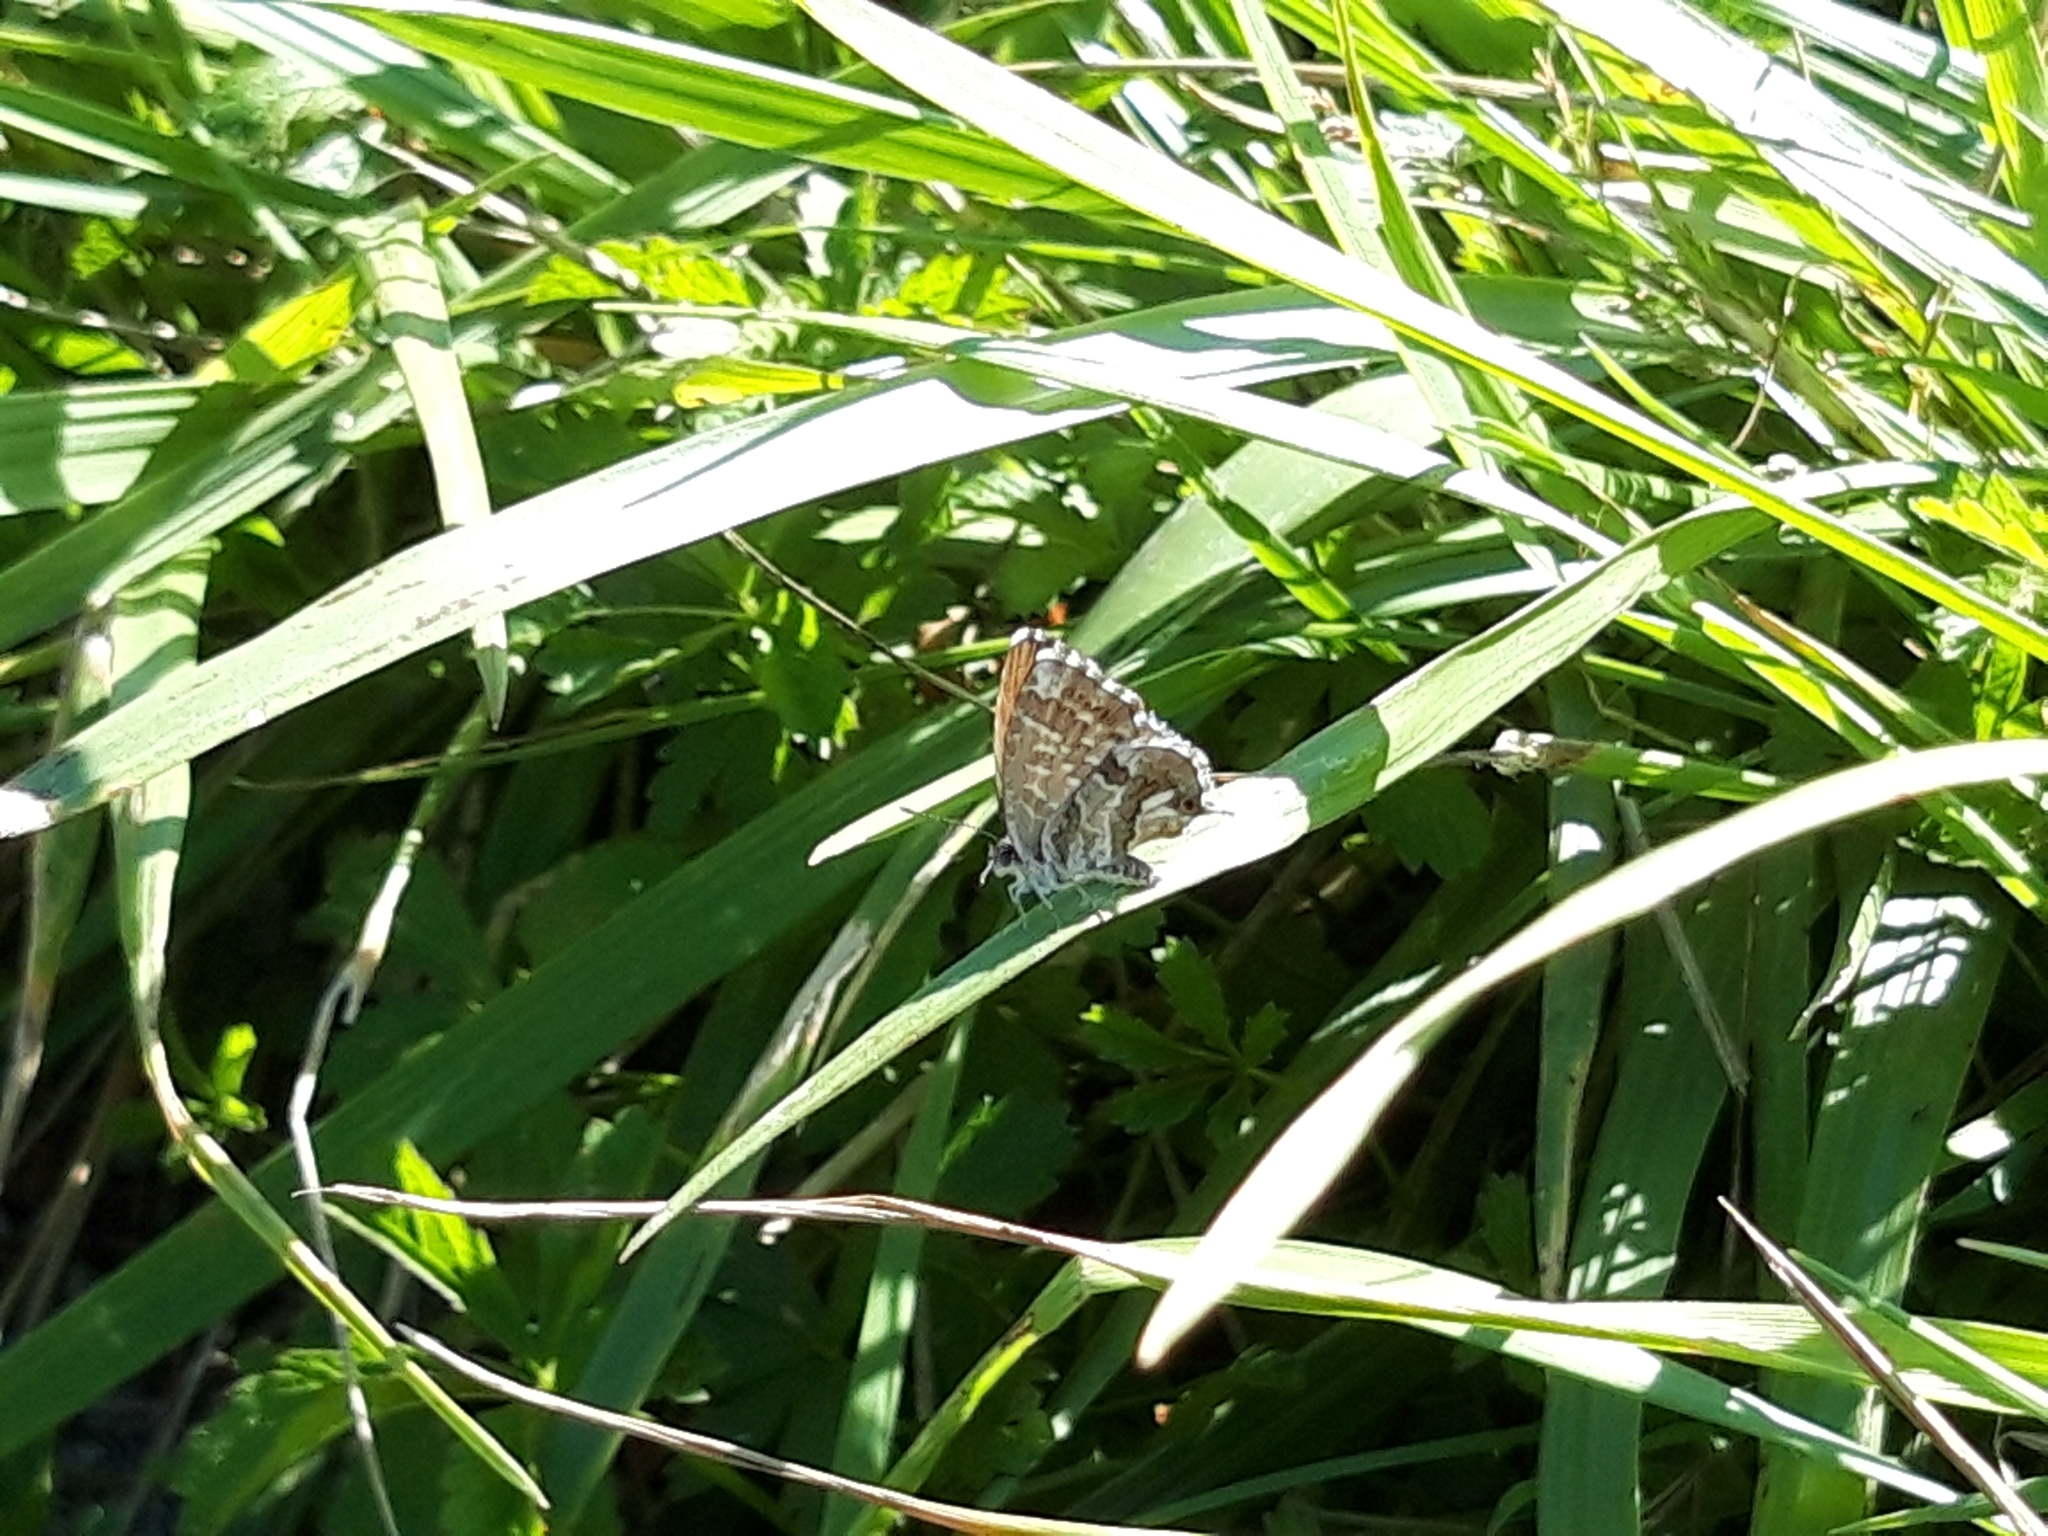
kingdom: Animalia
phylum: Arthropoda
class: Insecta
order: Lepidoptera
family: Lycaenidae
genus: Cacyreus
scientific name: Cacyreus marshalli
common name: Geranium bronze
